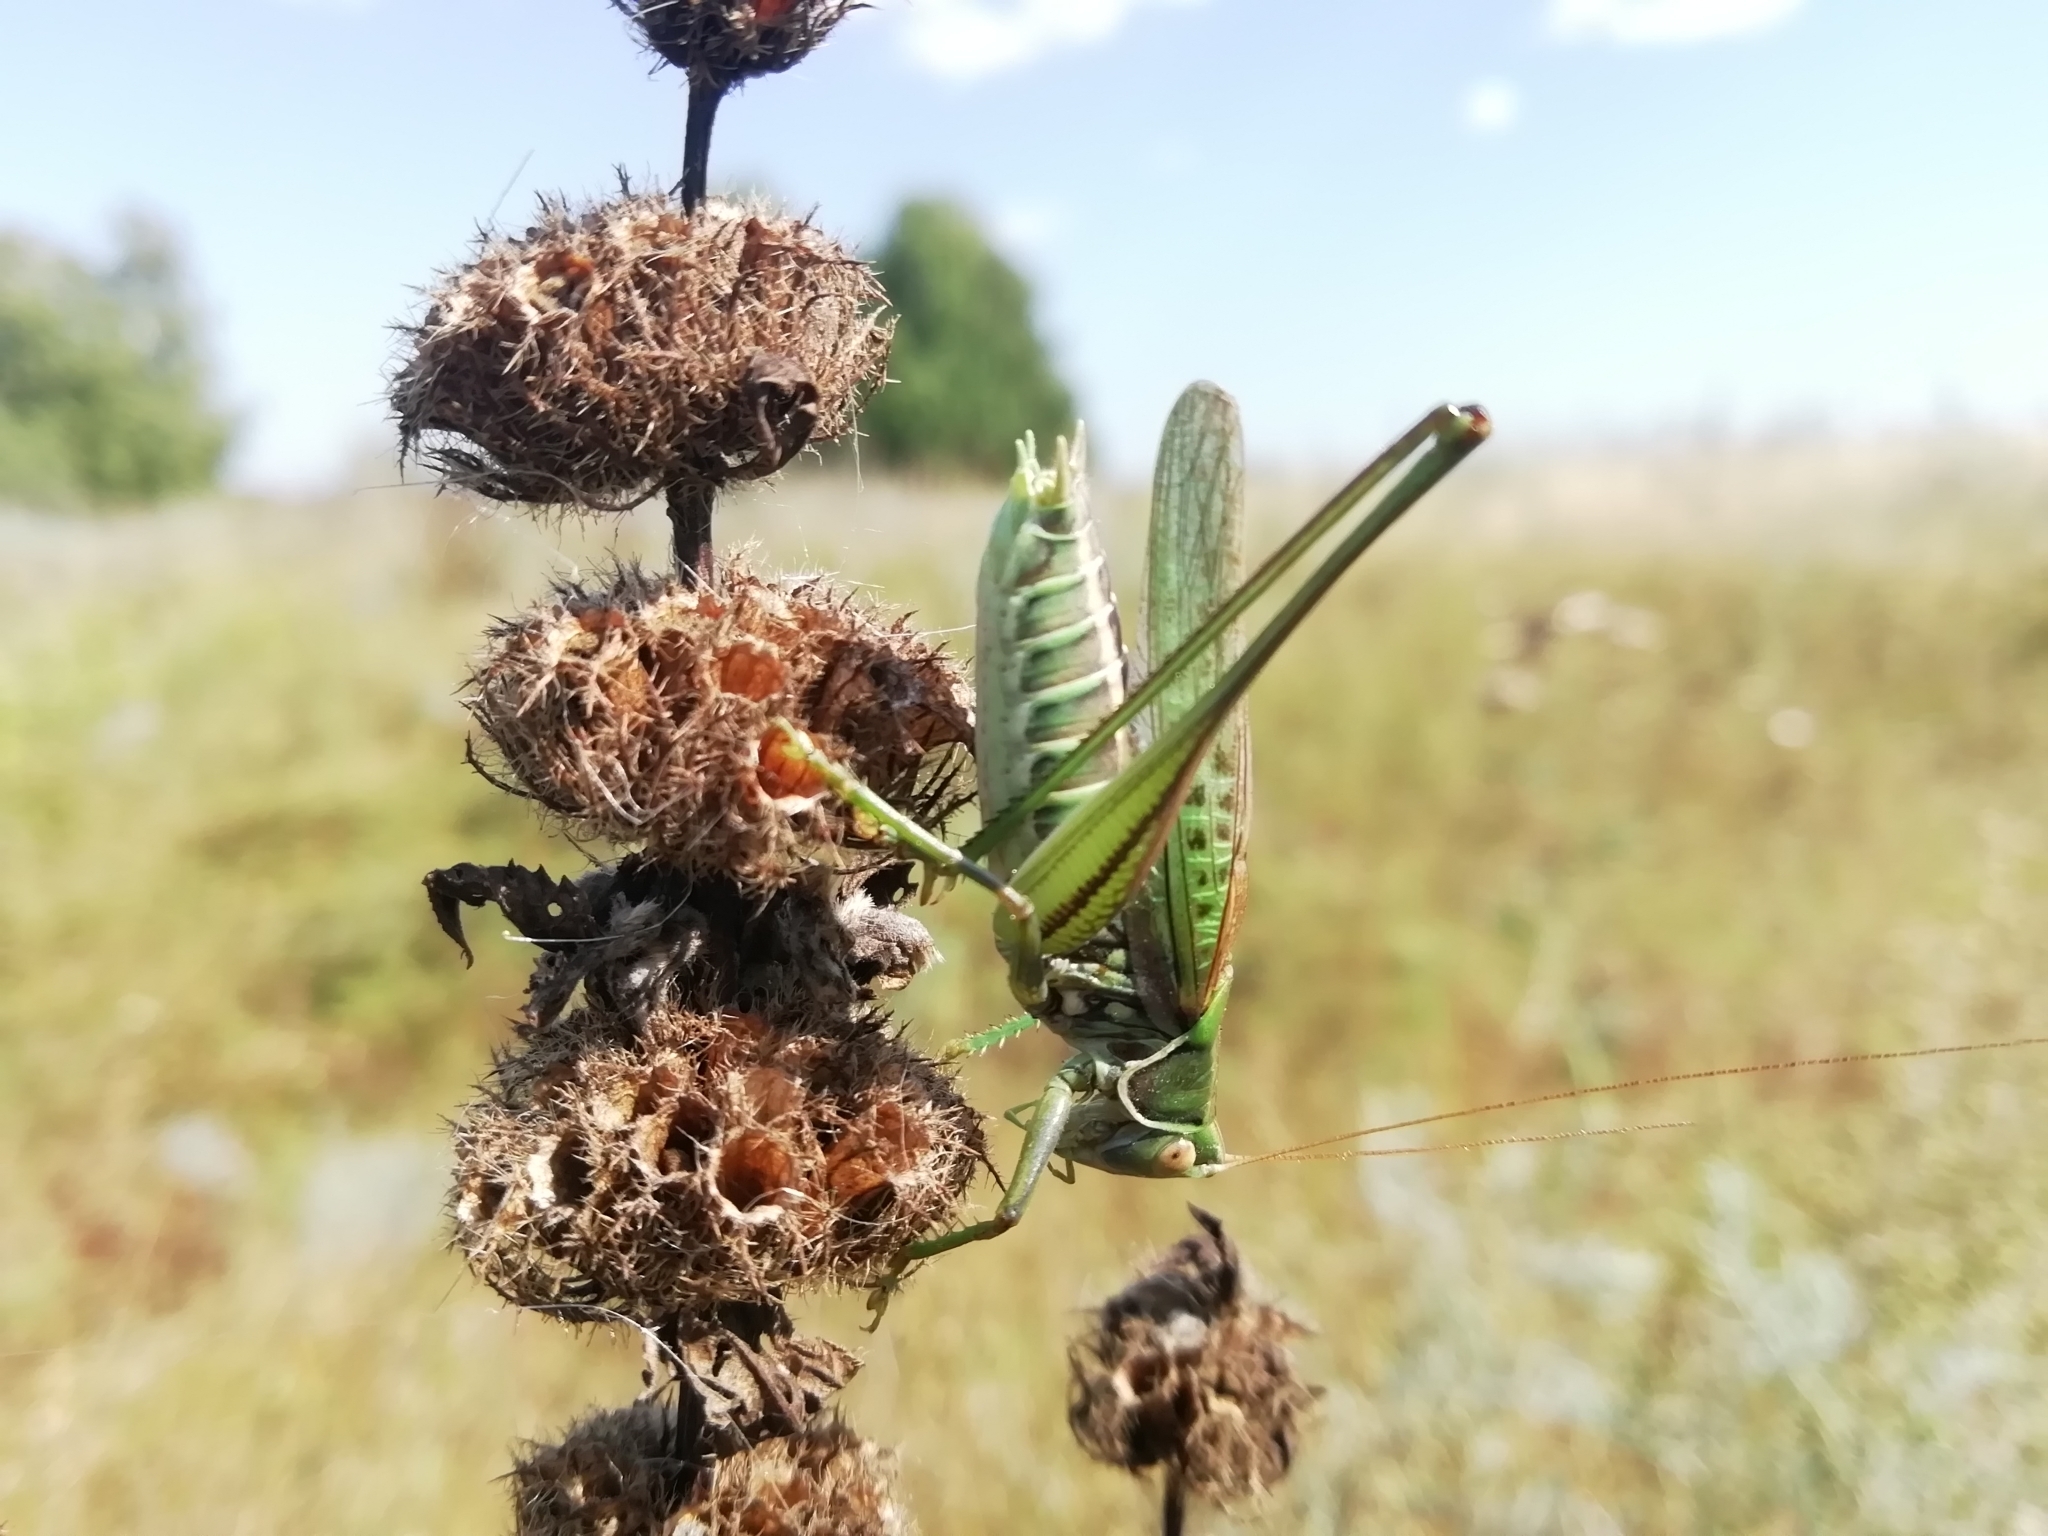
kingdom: Animalia
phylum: Arthropoda
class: Insecta
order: Orthoptera
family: Tettigoniidae
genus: Gampsocleis
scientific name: Gampsocleis glabra
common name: Heath bushcricket
